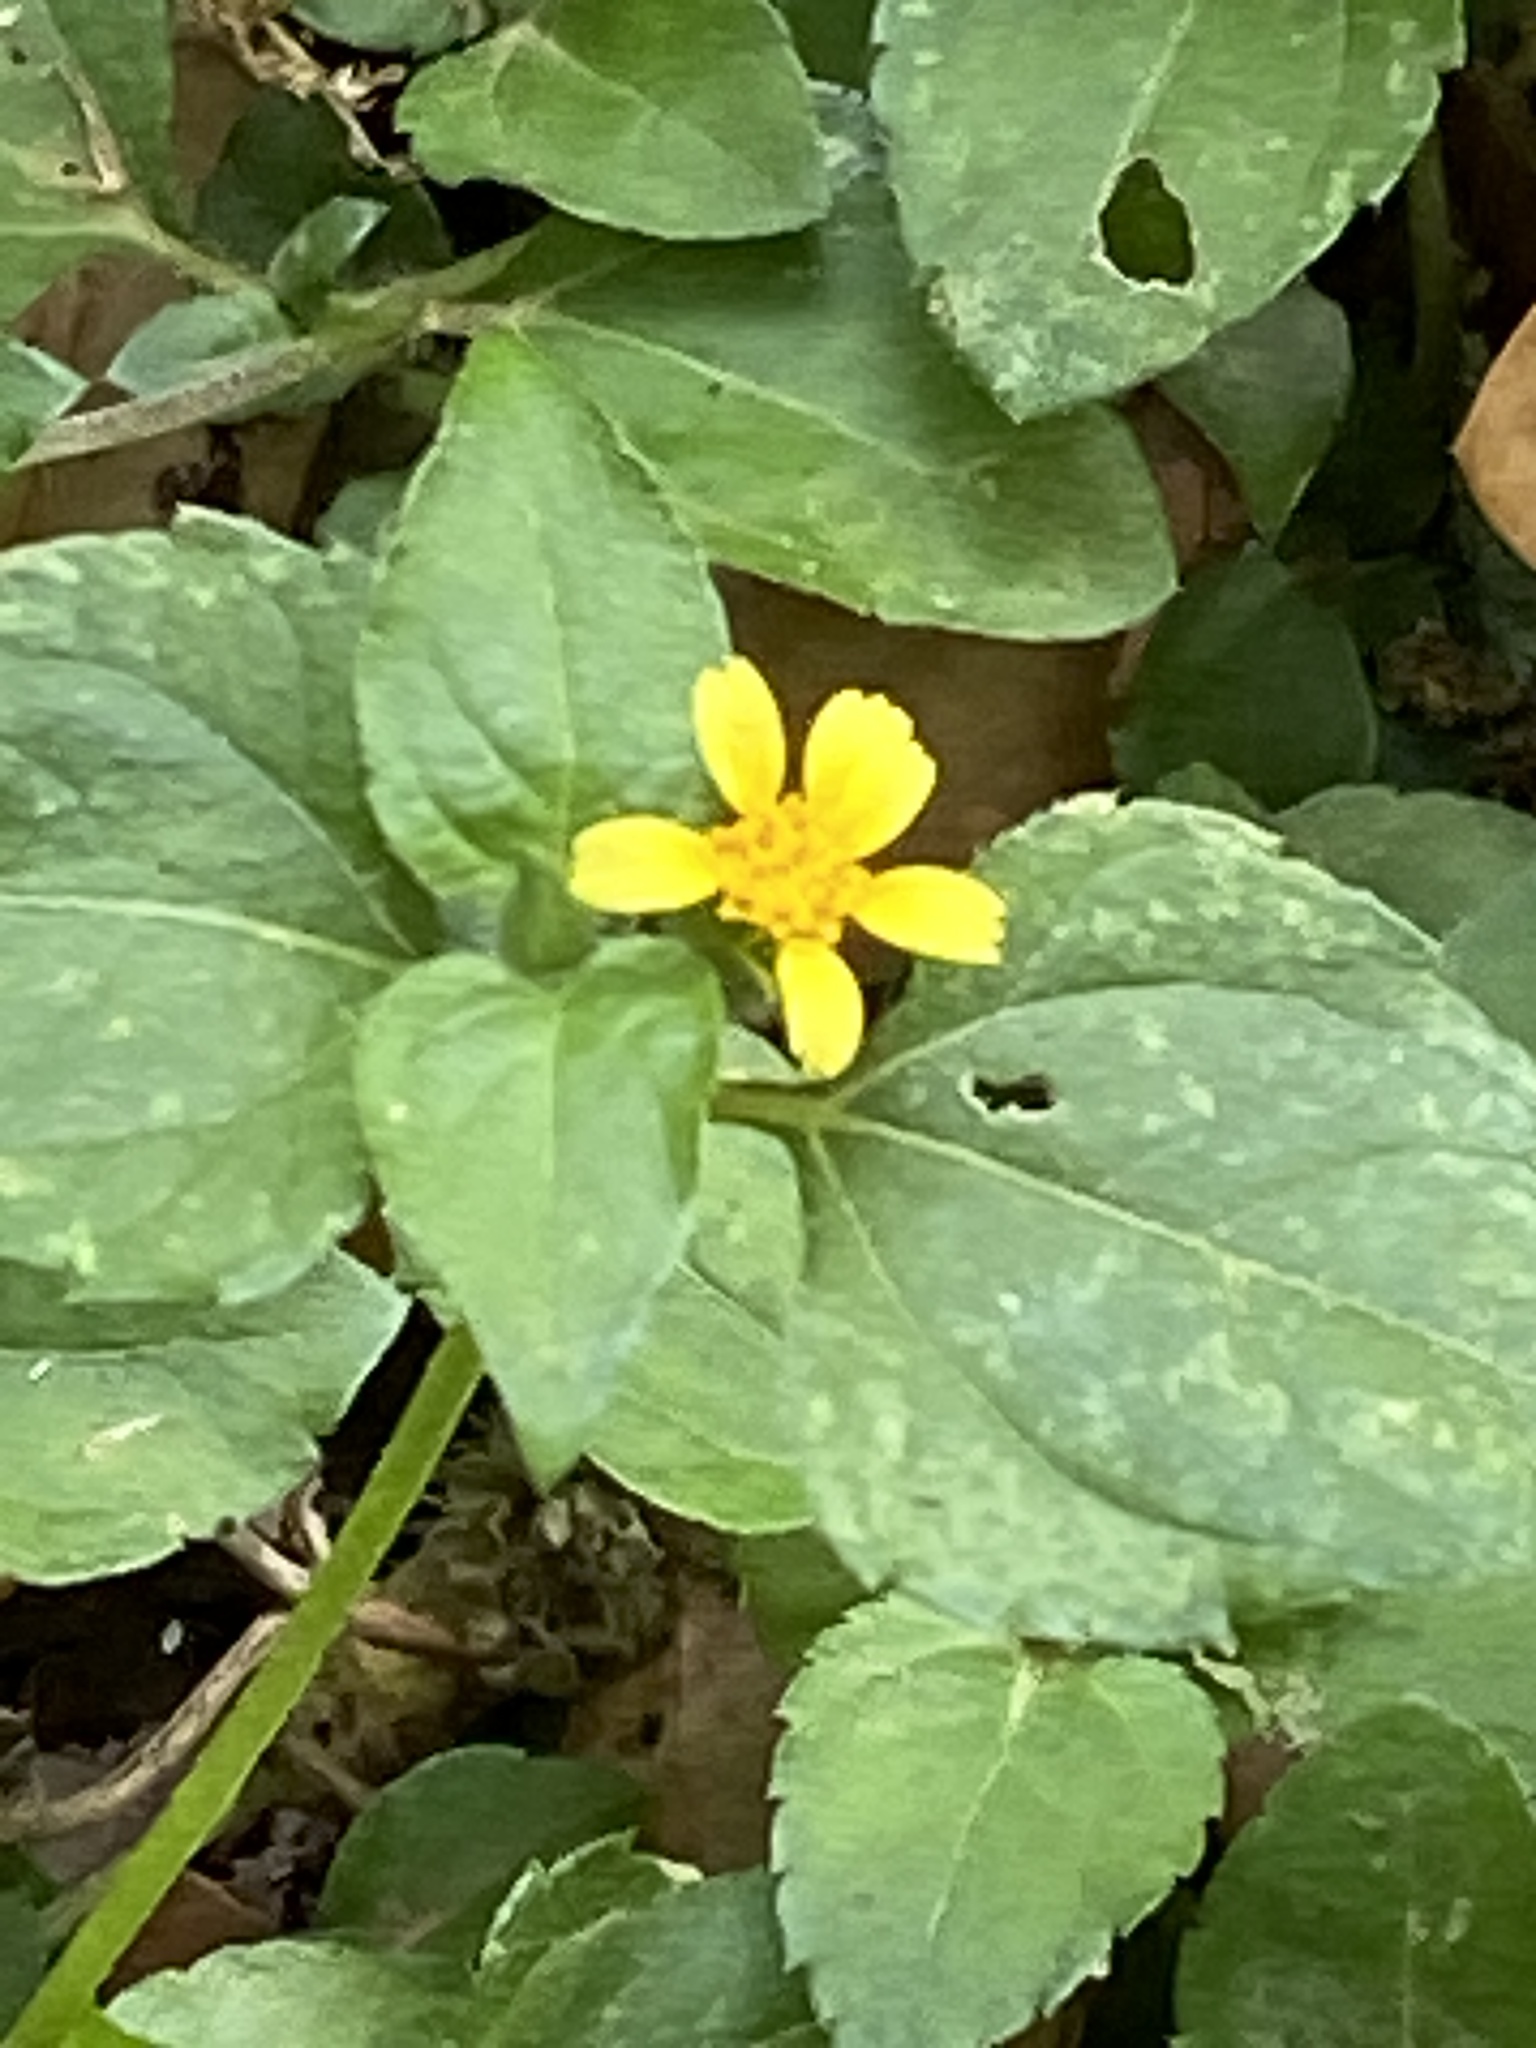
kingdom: Plantae
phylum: Tracheophyta
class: Magnoliopsida
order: Asterales
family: Asteraceae
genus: Calyptocarpus
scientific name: Calyptocarpus vialis
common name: Straggler daisy
